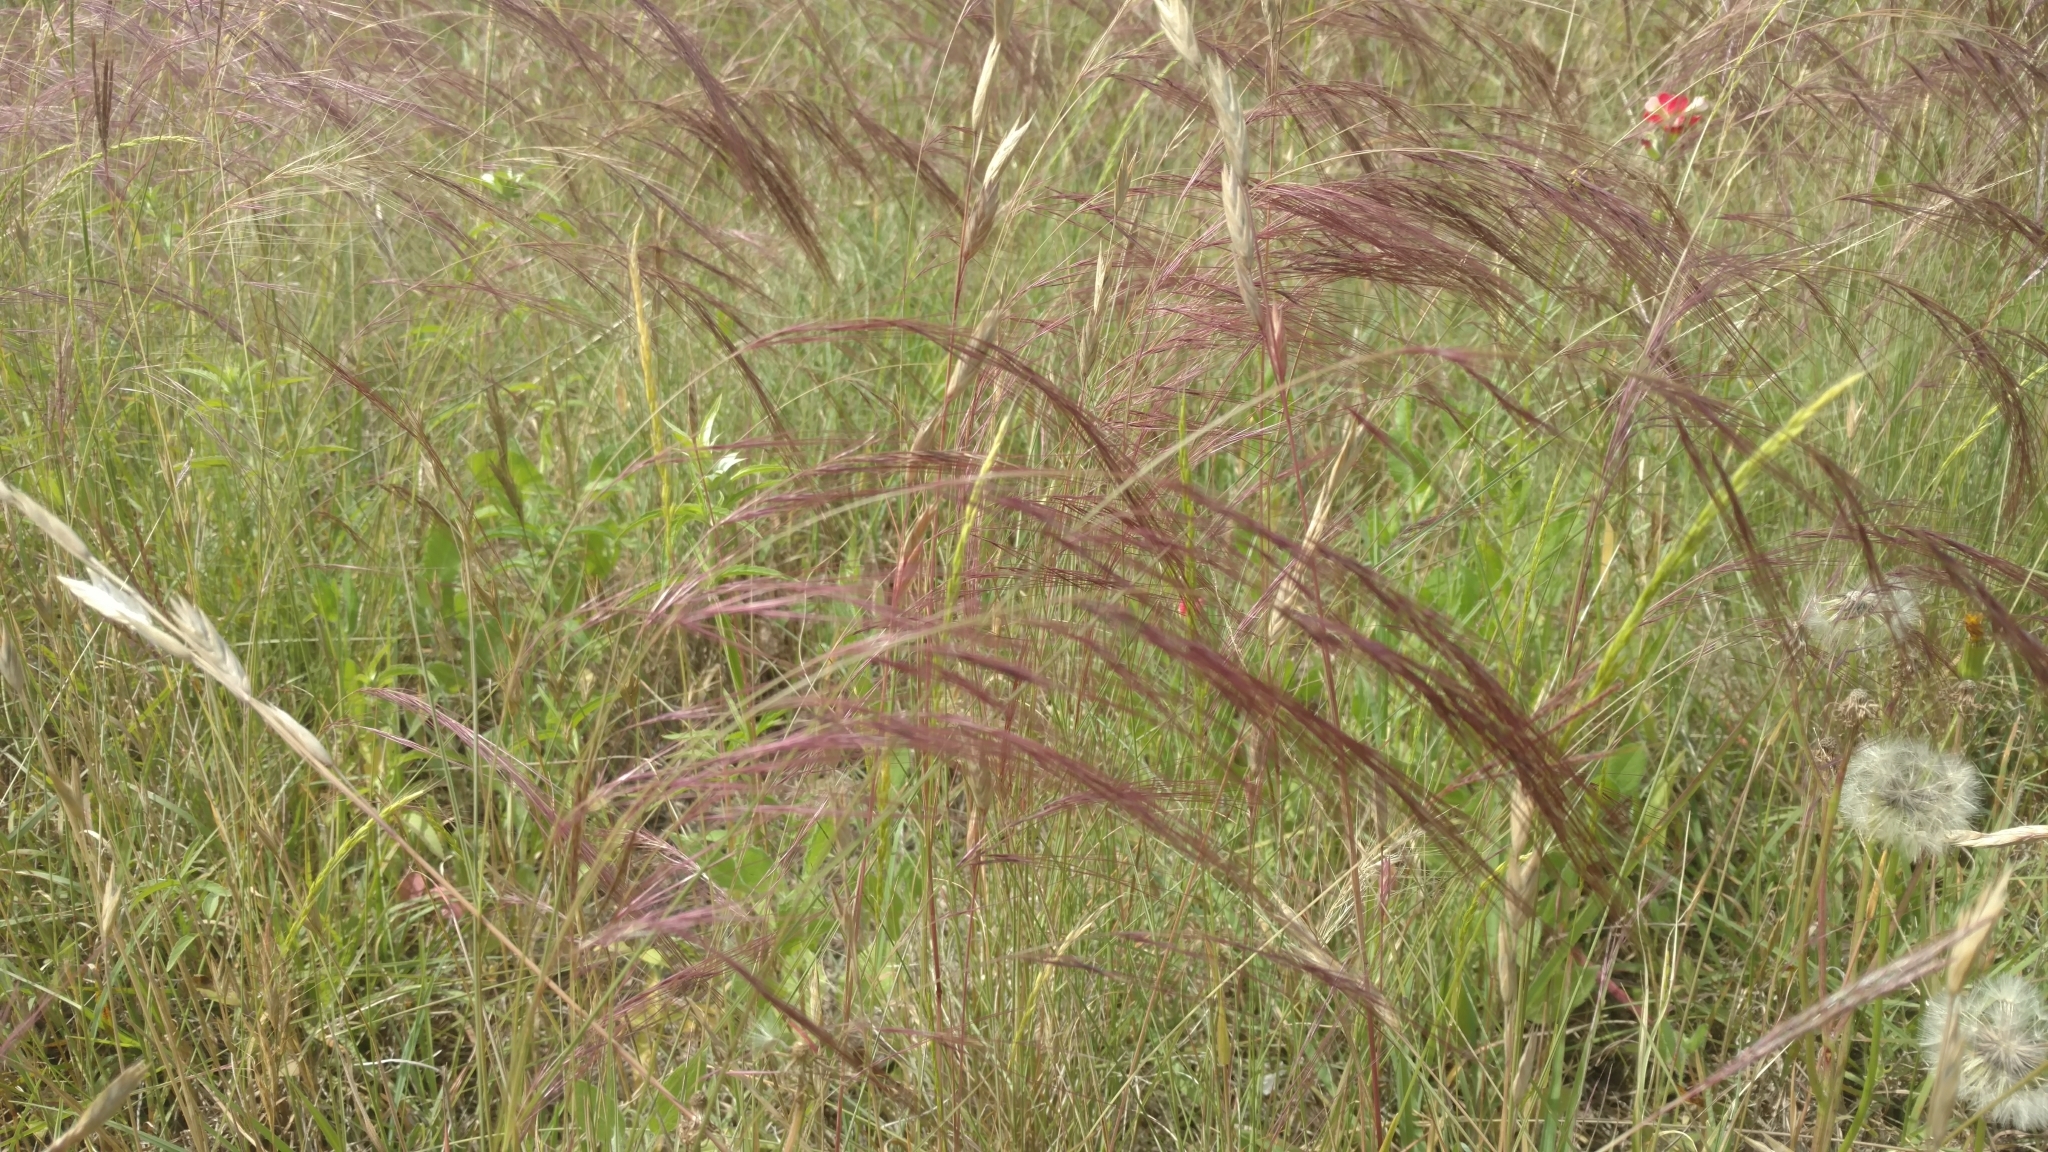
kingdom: Plantae
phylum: Tracheophyta
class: Liliopsida
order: Poales
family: Poaceae
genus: Aristida
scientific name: Aristida purpurea
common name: Purple threeawn
